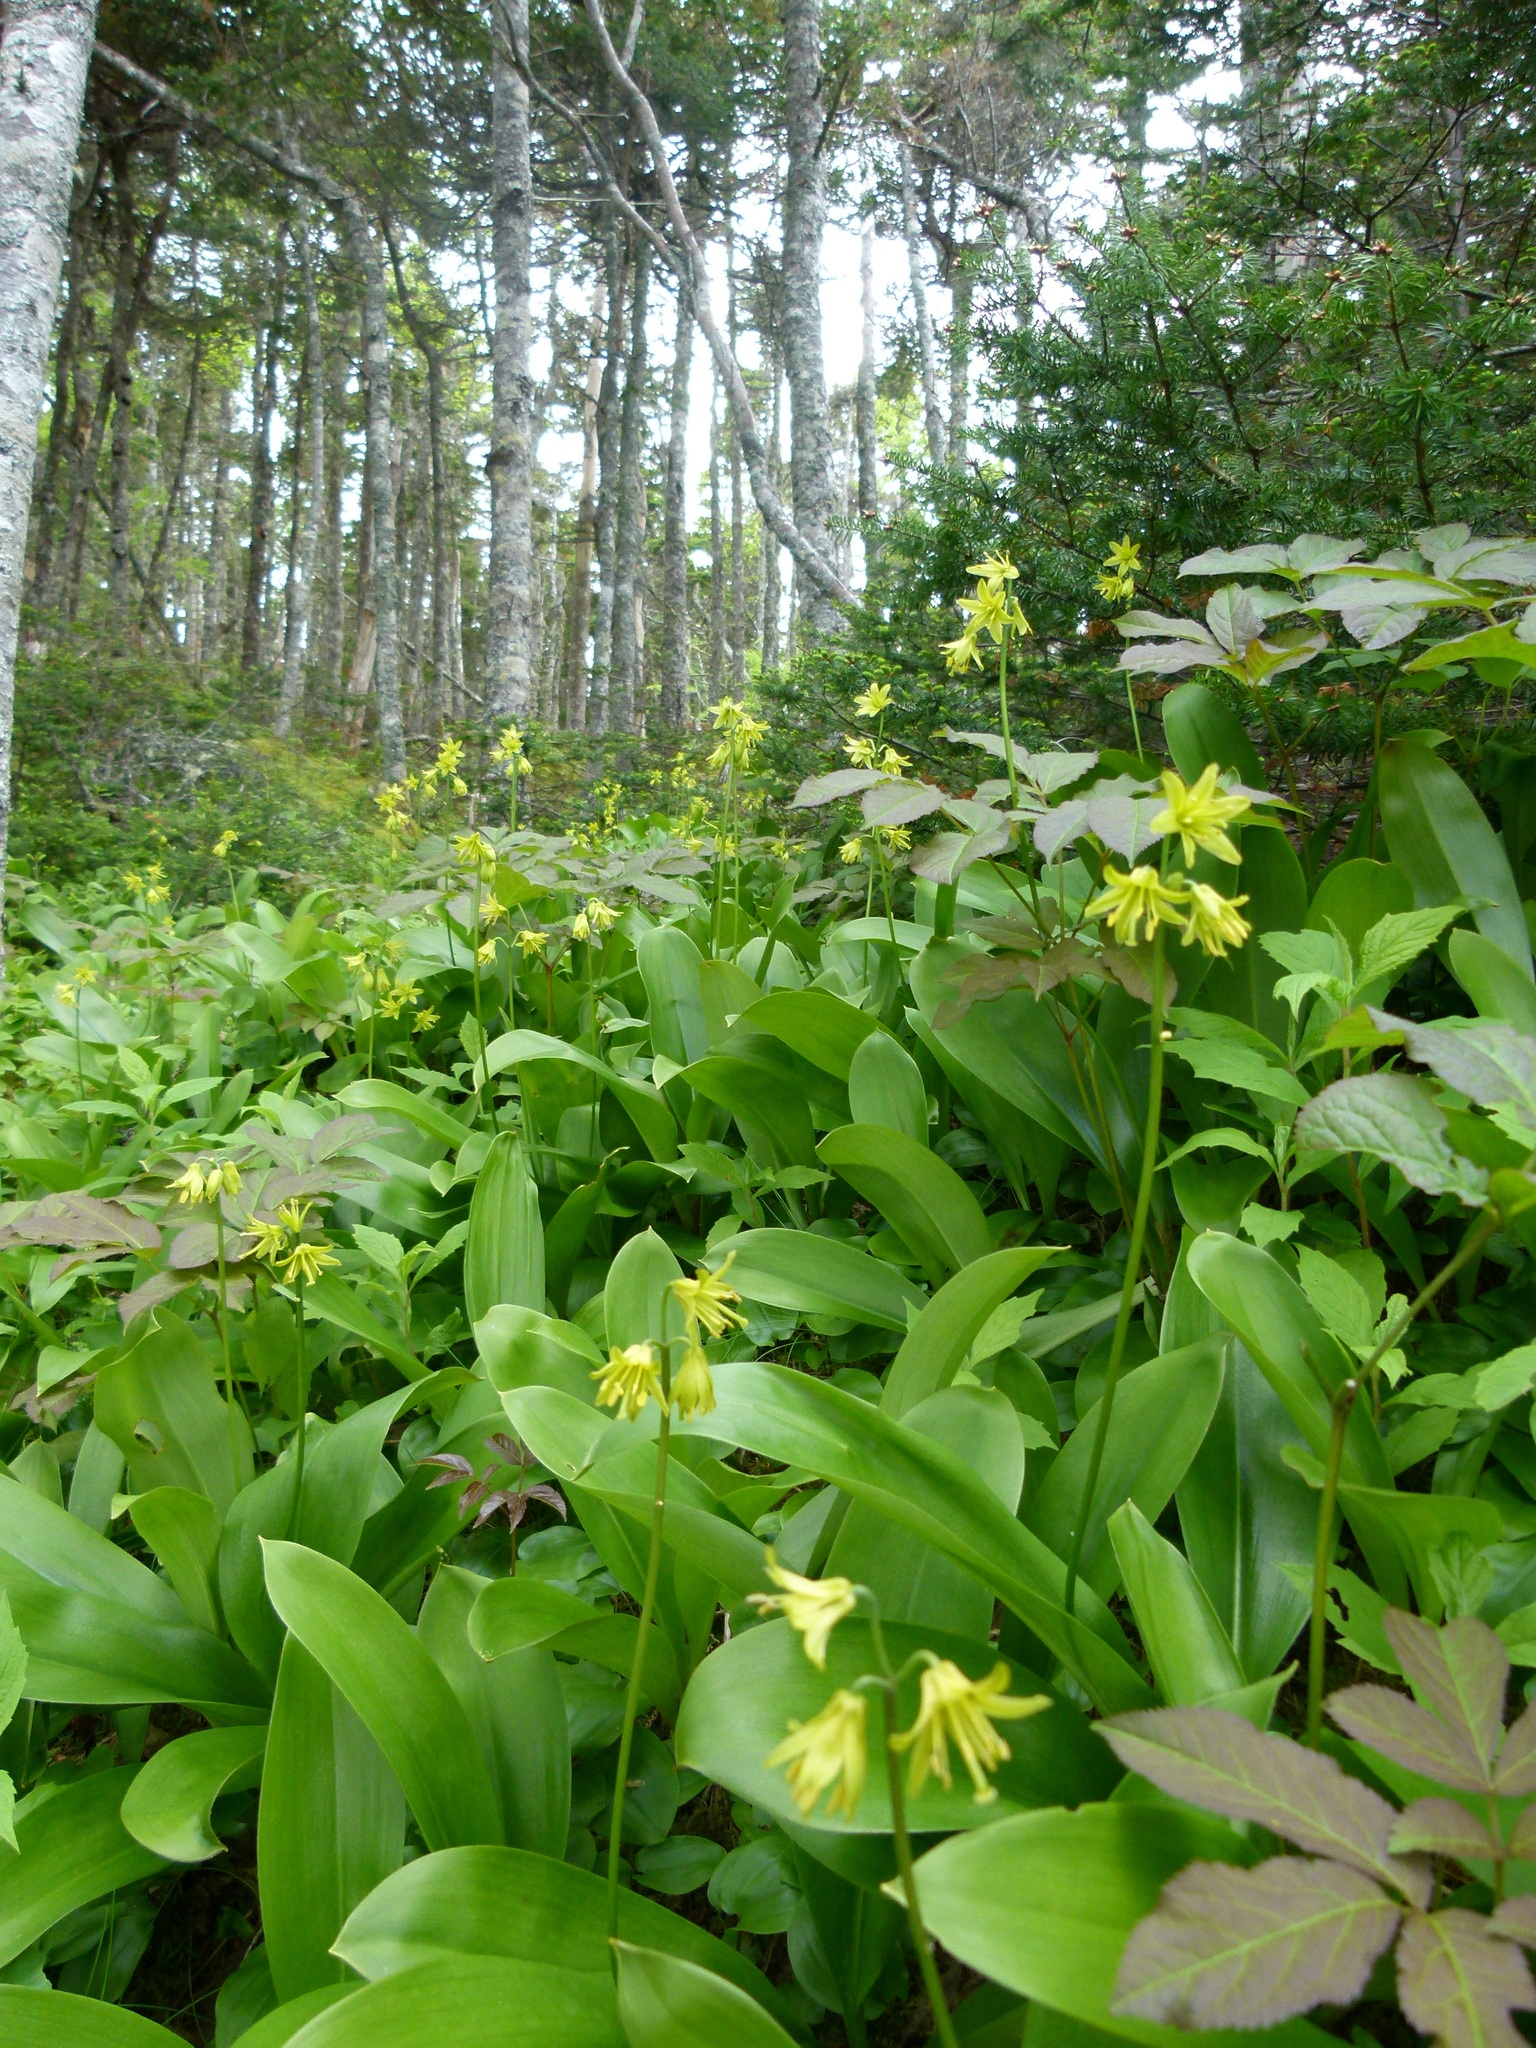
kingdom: Plantae
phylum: Tracheophyta
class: Liliopsida
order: Liliales
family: Liliaceae
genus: Clintonia
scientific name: Clintonia borealis
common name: Yellow clintonia
